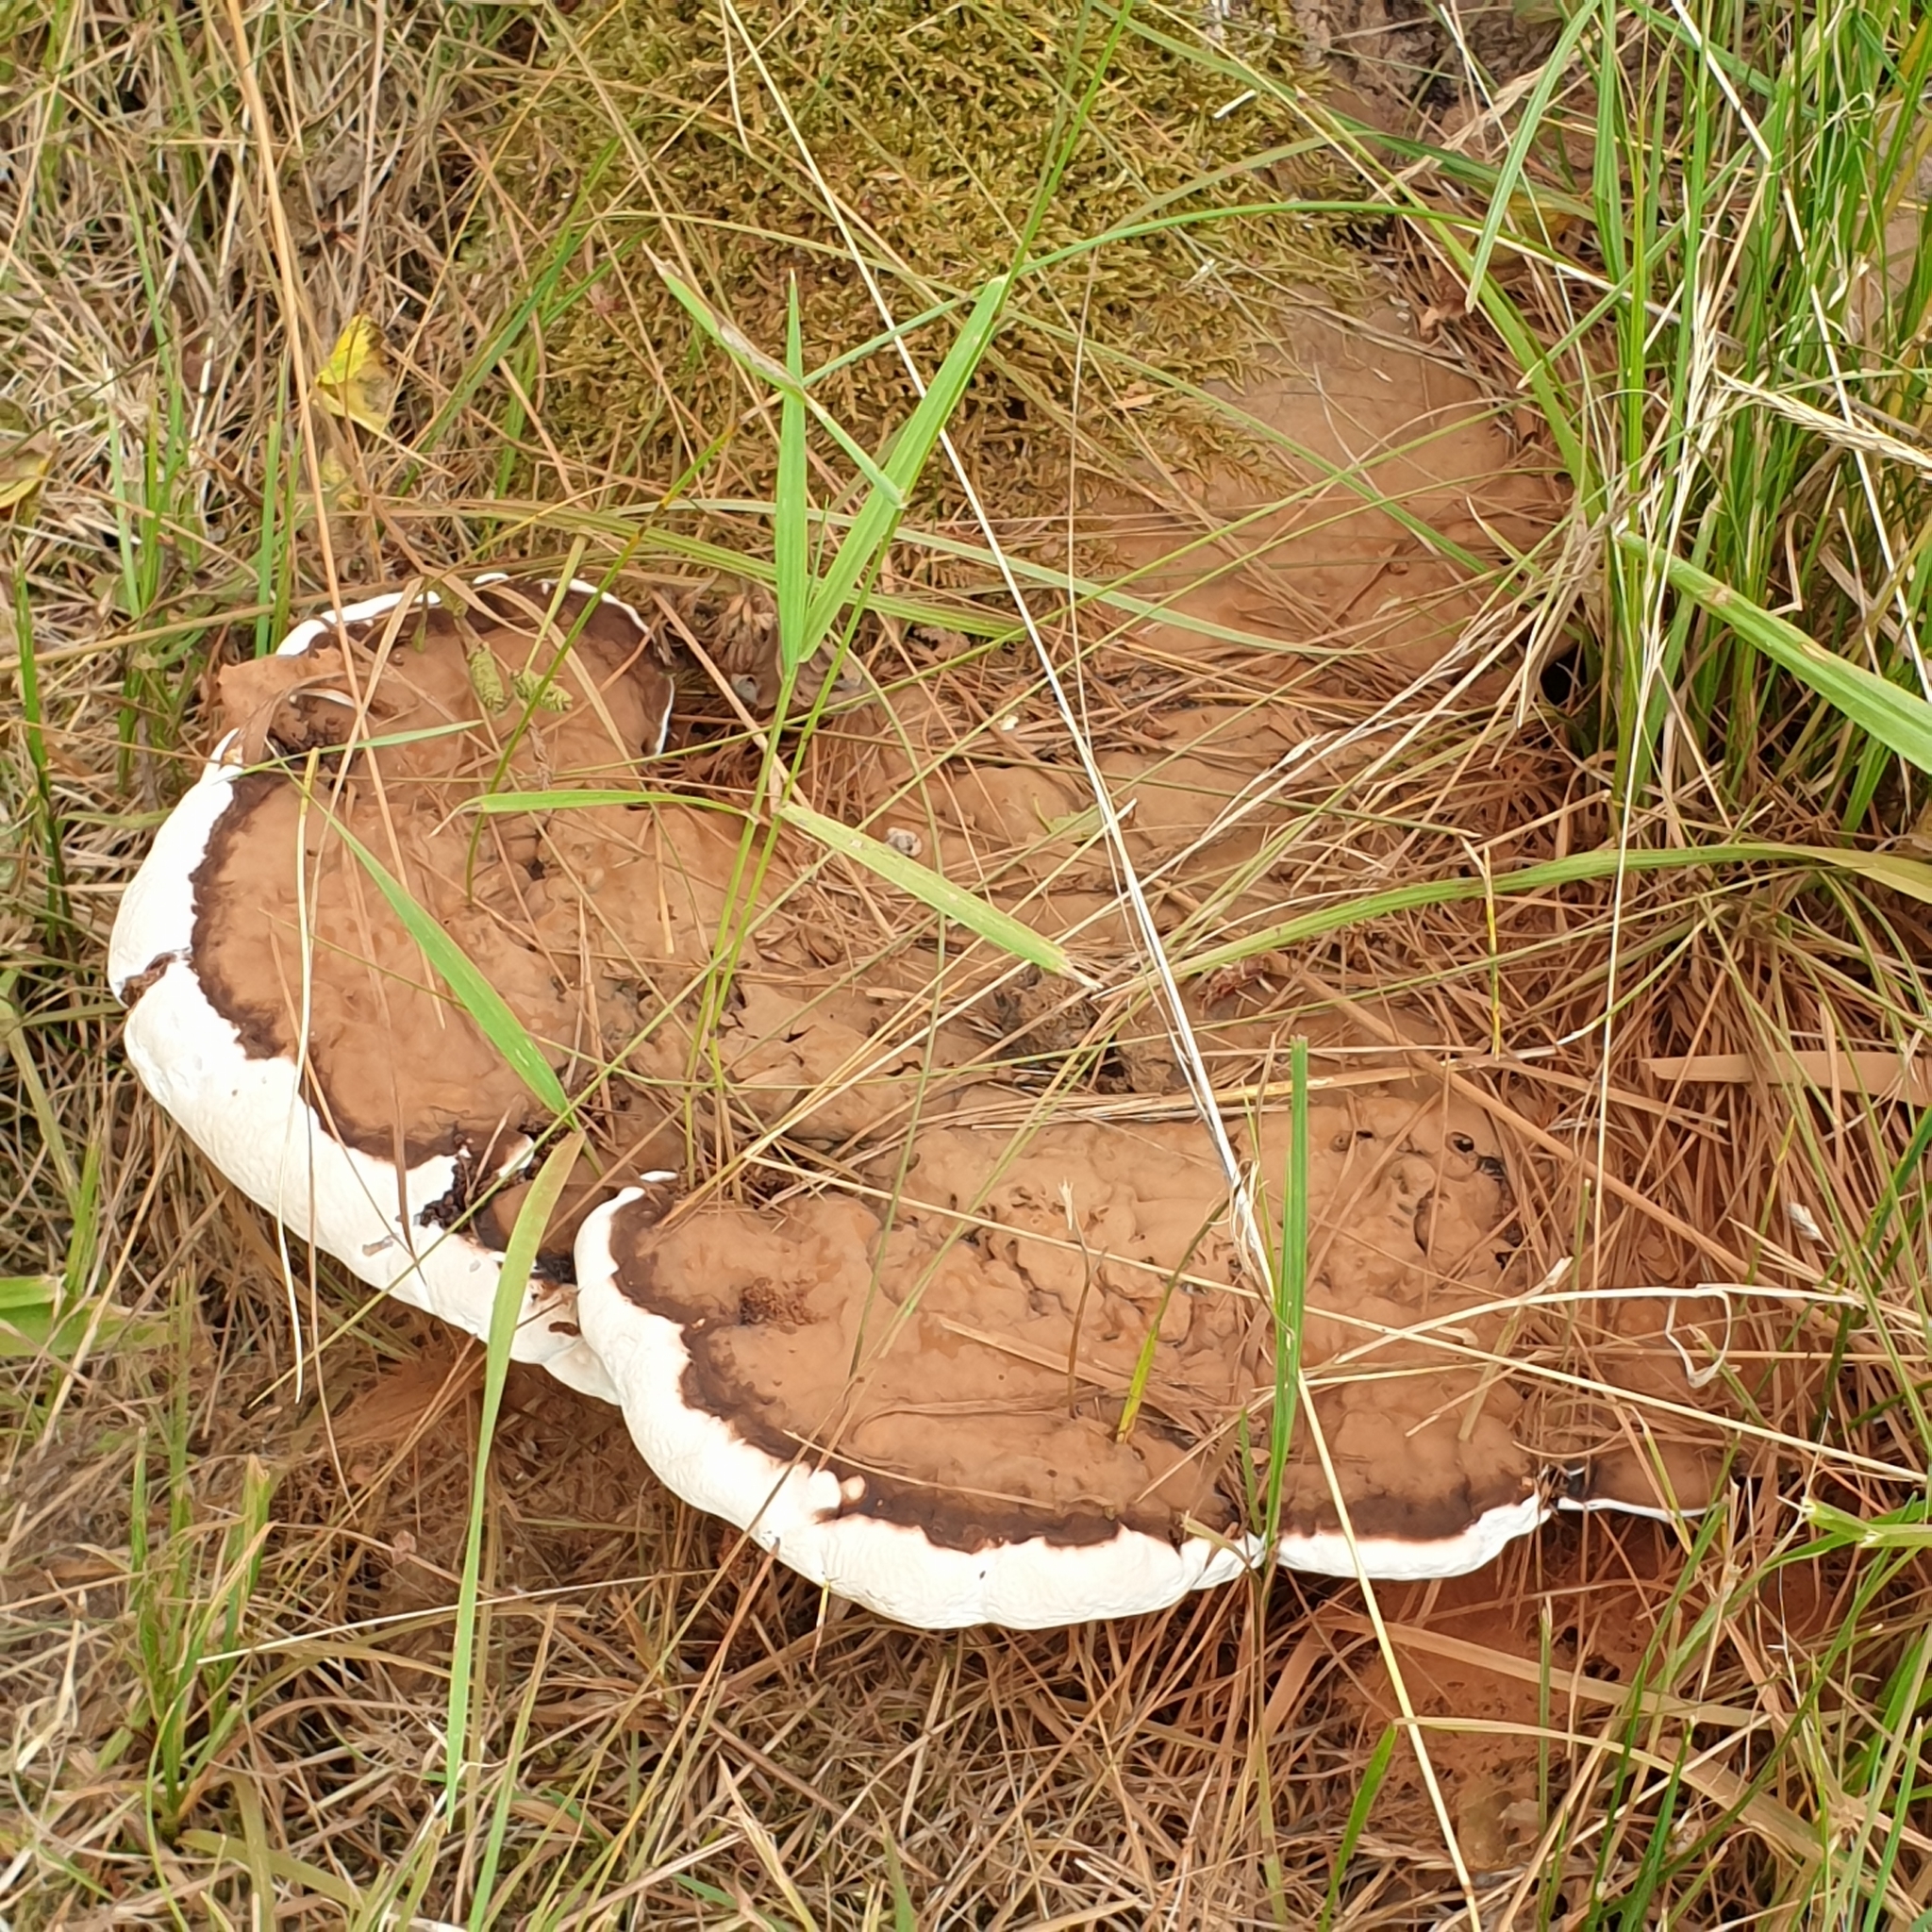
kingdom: Fungi
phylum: Basidiomycota
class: Agaricomycetes
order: Polyporales
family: Polyporaceae
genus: Ganoderma
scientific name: Ganoderma applanatum
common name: Artist's bracket
